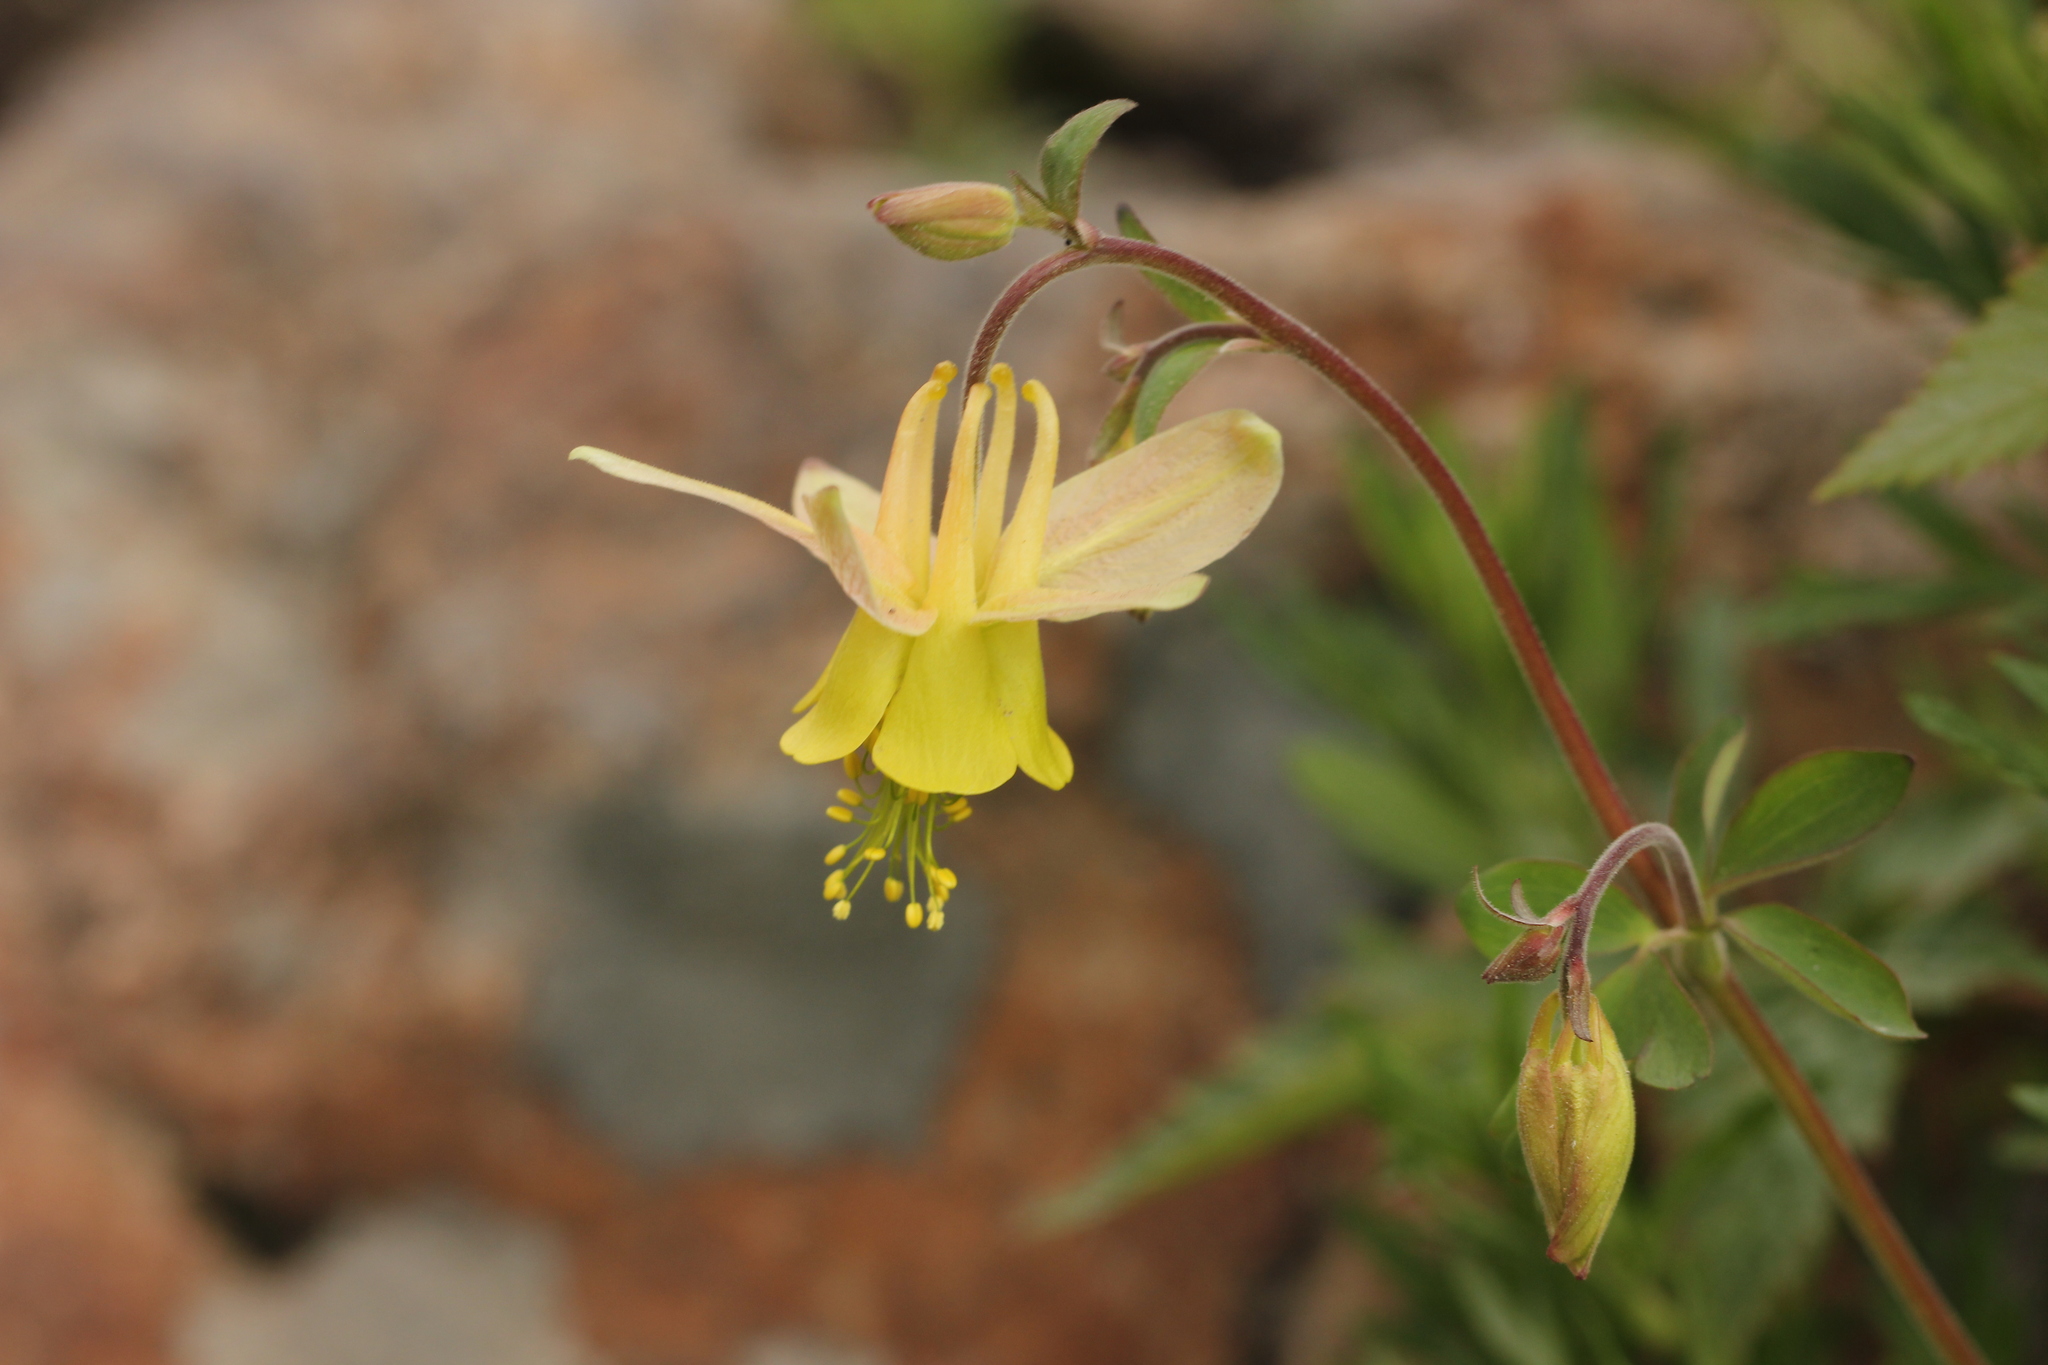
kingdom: Plantae
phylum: Tracheophyta
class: Magnoliopsida
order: Ranunculales
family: Ranunculaceae
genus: Aquilegia
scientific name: Aquilegia flavescens
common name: Yellow columbine
